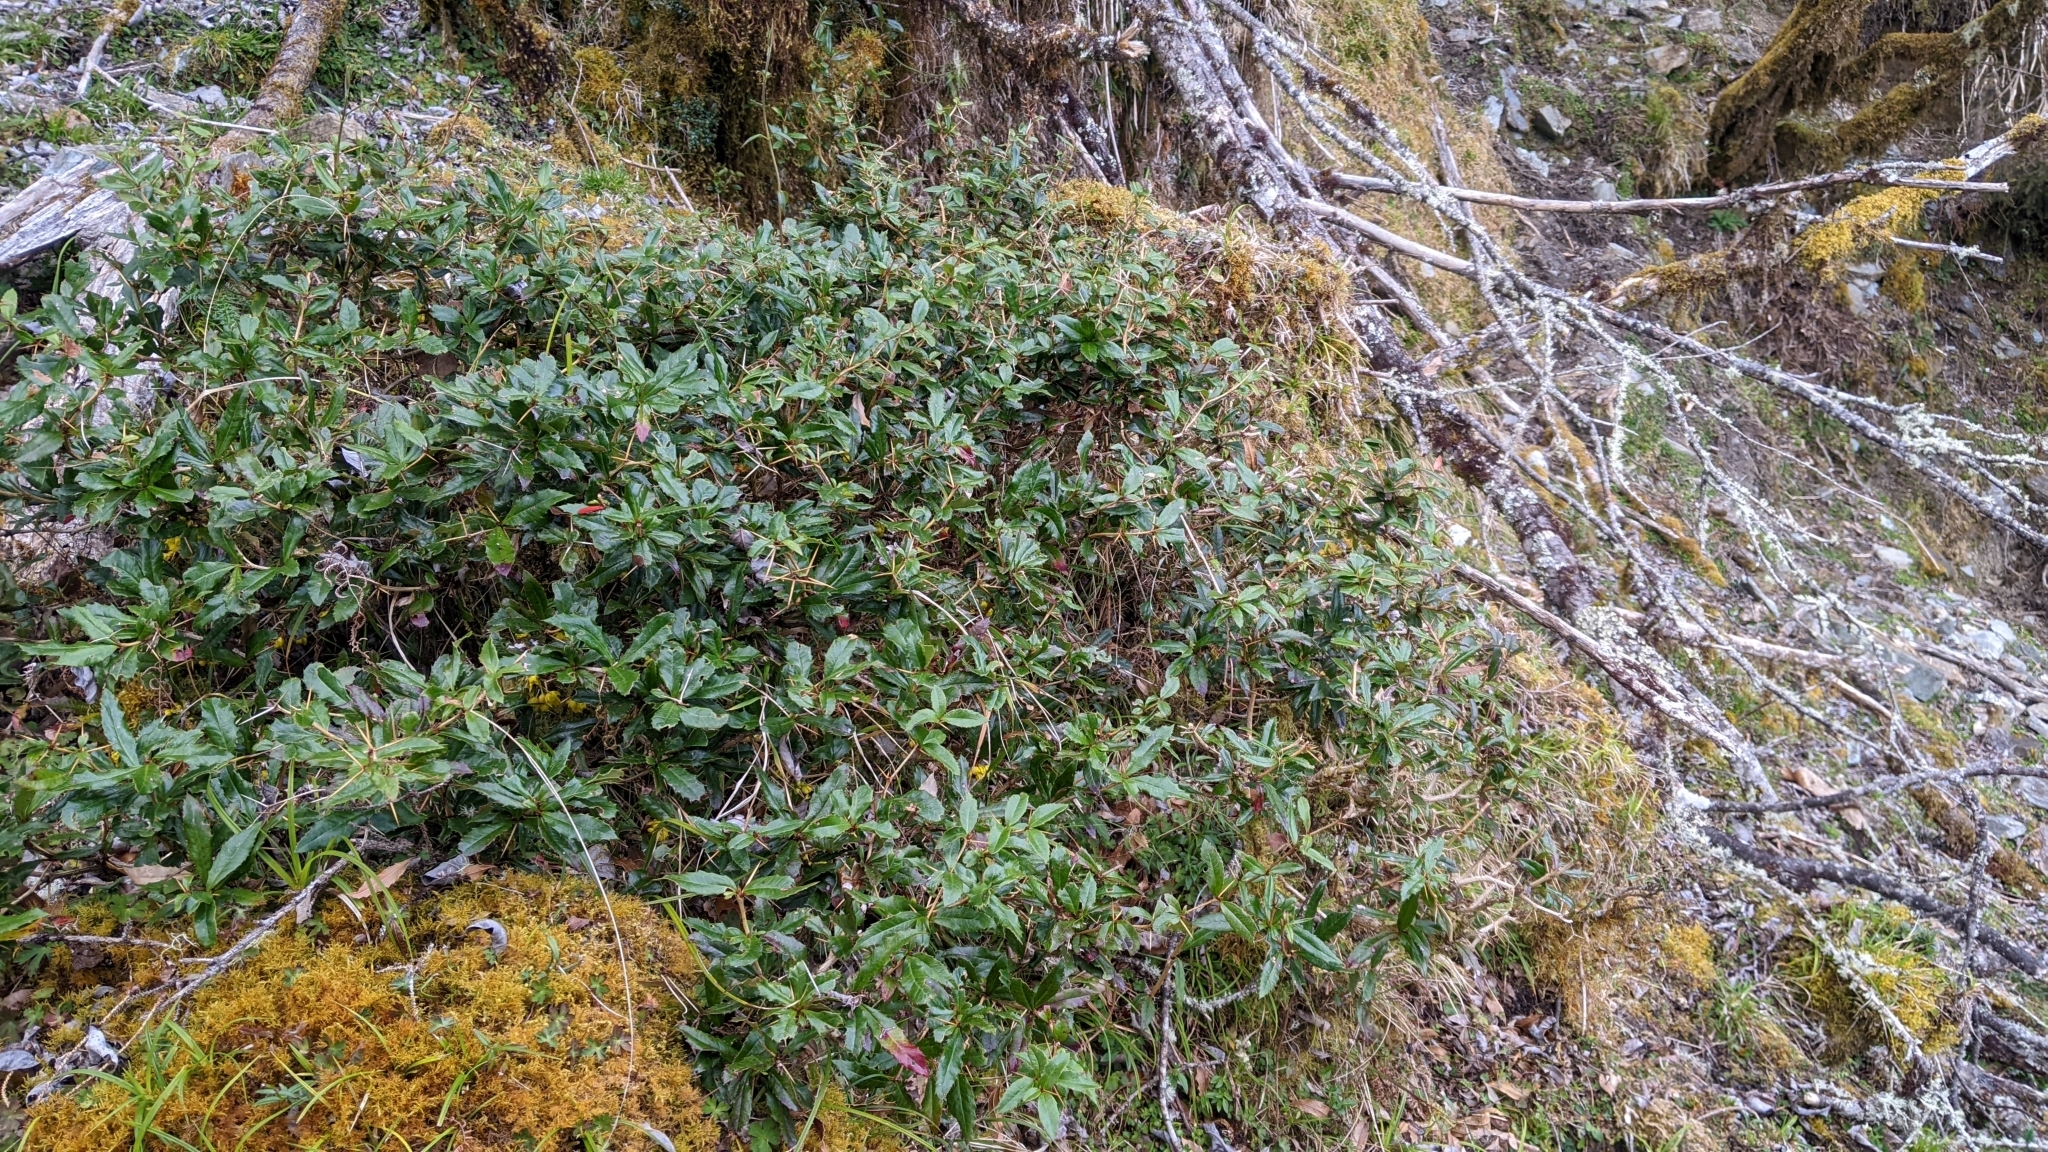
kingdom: Plantae
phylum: Tracheophyta
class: Magnoliopsida
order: Ranunculales
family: Berberidaceae
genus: Berberis
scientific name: Berberis kawakamii
